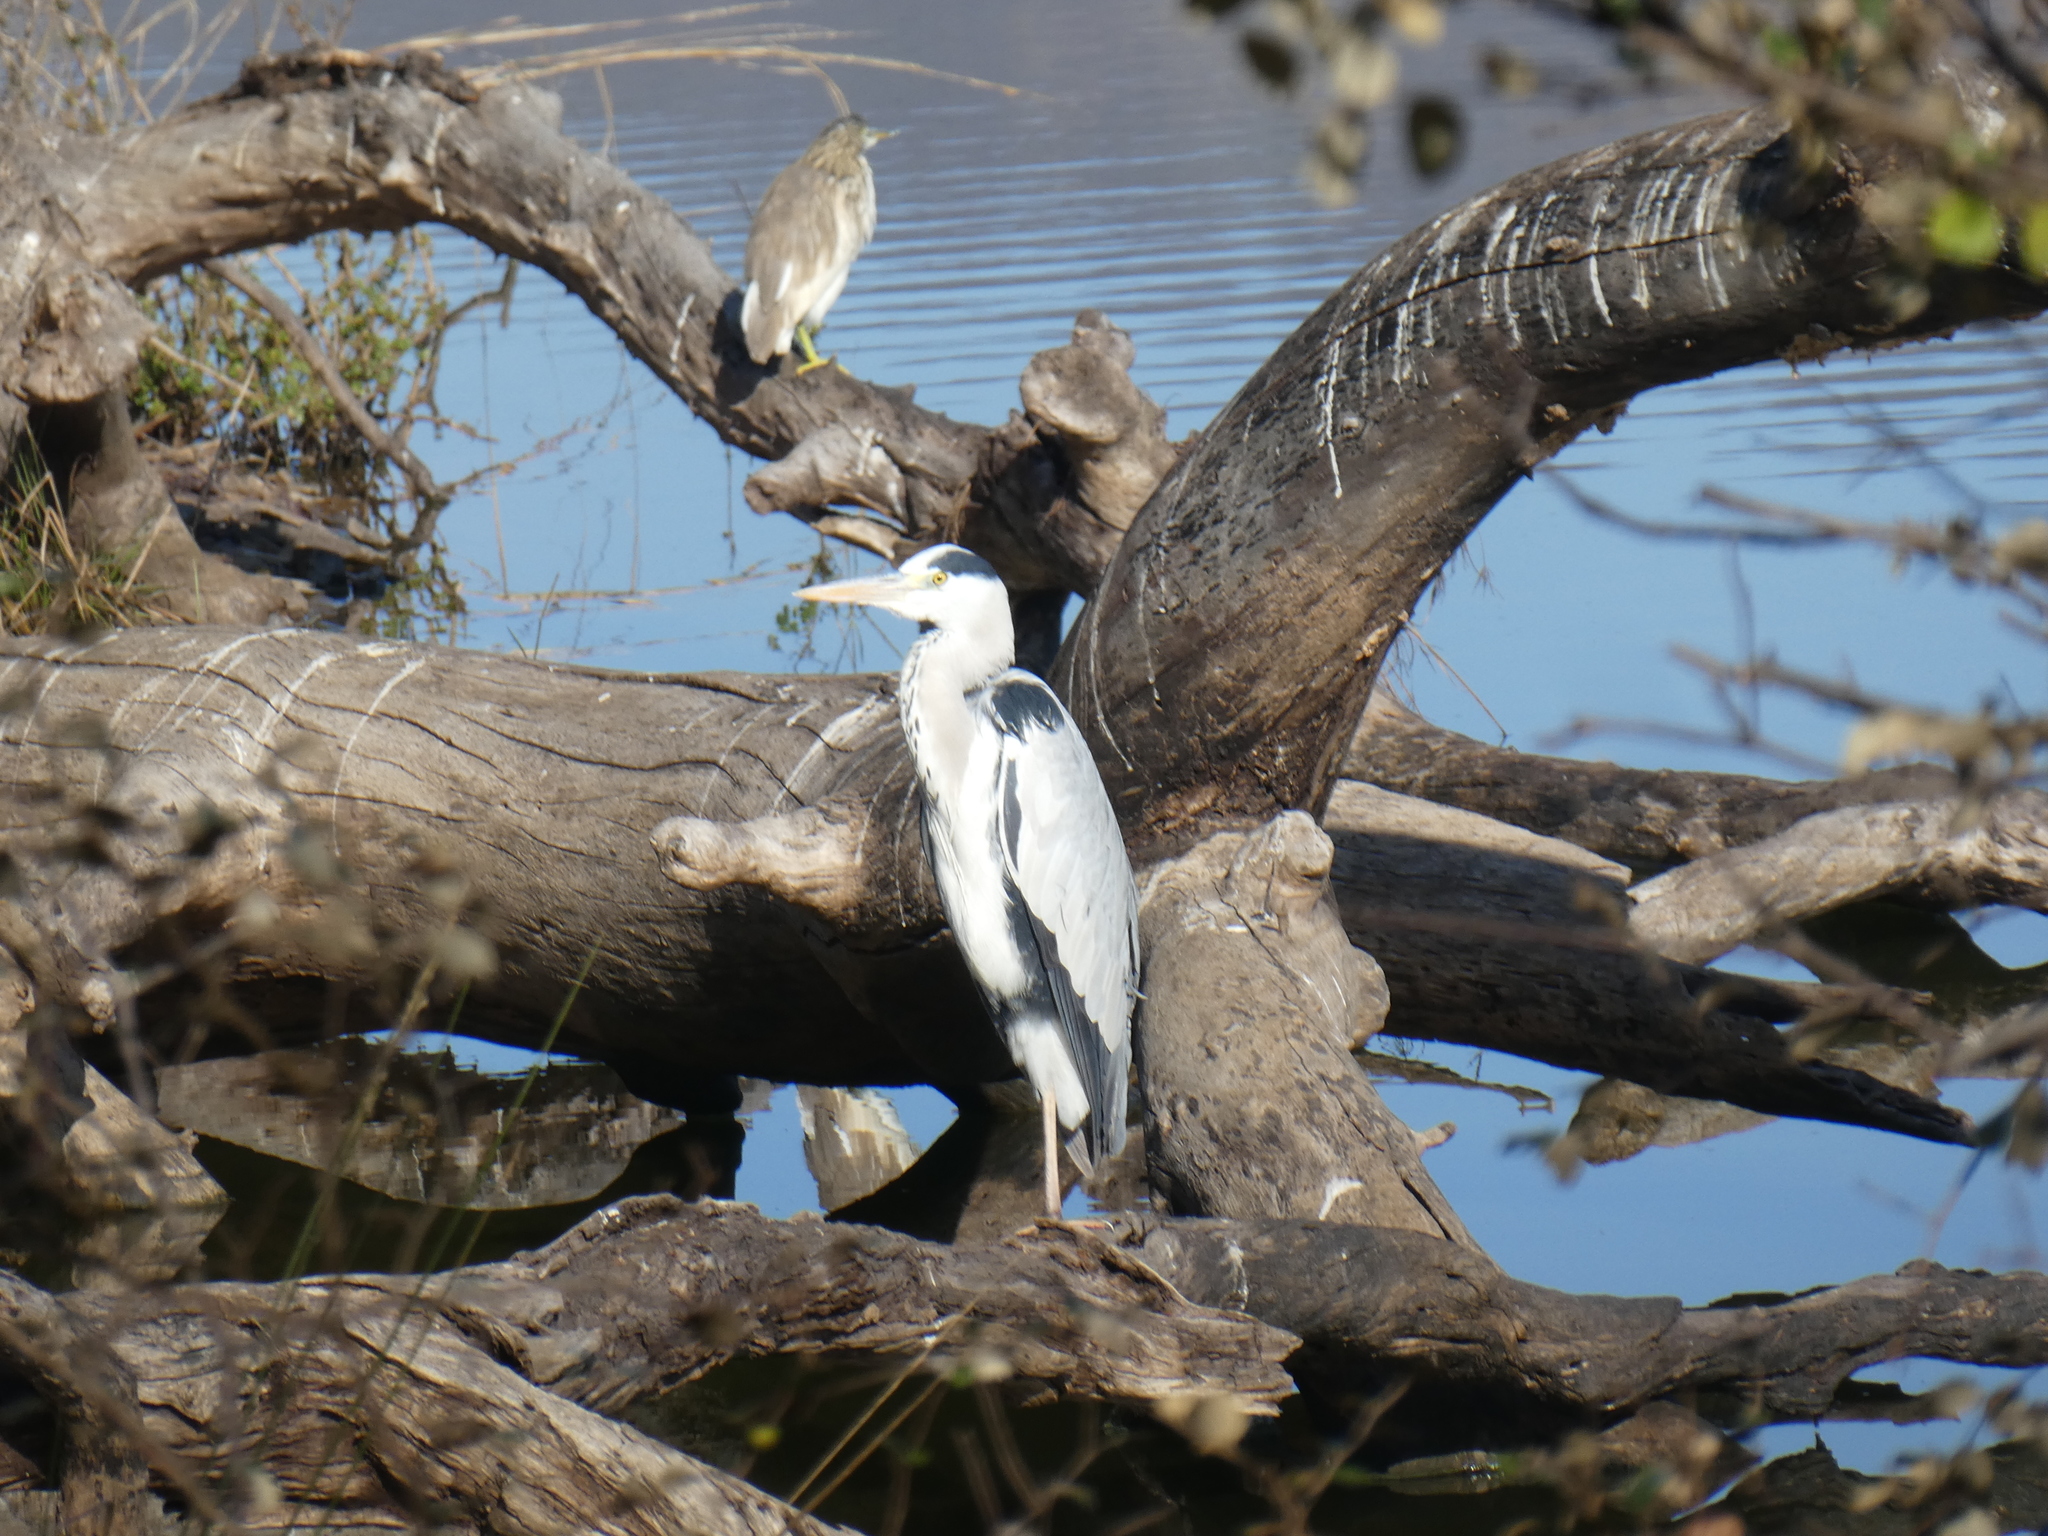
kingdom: Animalia
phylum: Chordata
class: Aves
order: Pelecaniformes
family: Ardeidae
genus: Ardea
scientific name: Ardea cinerea
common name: Grey heron
